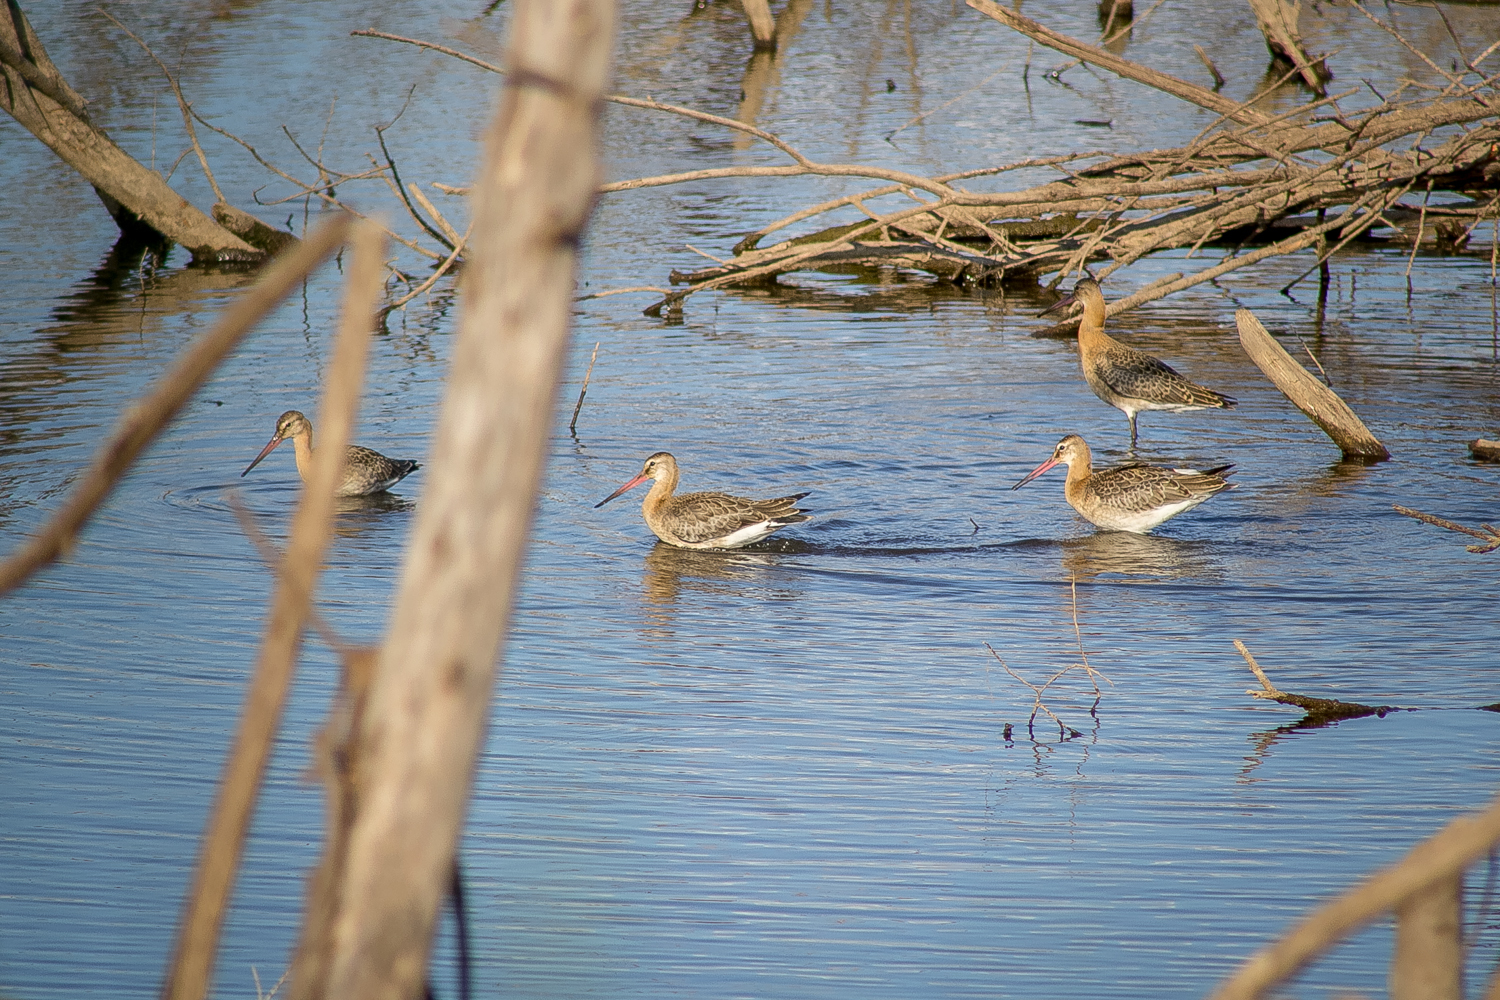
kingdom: Animalia
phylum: Chordata
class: Aves
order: Charadriiformes
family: Scolopacidae
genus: Limosa
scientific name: Limosa limosa
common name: Black-tailed godwit
